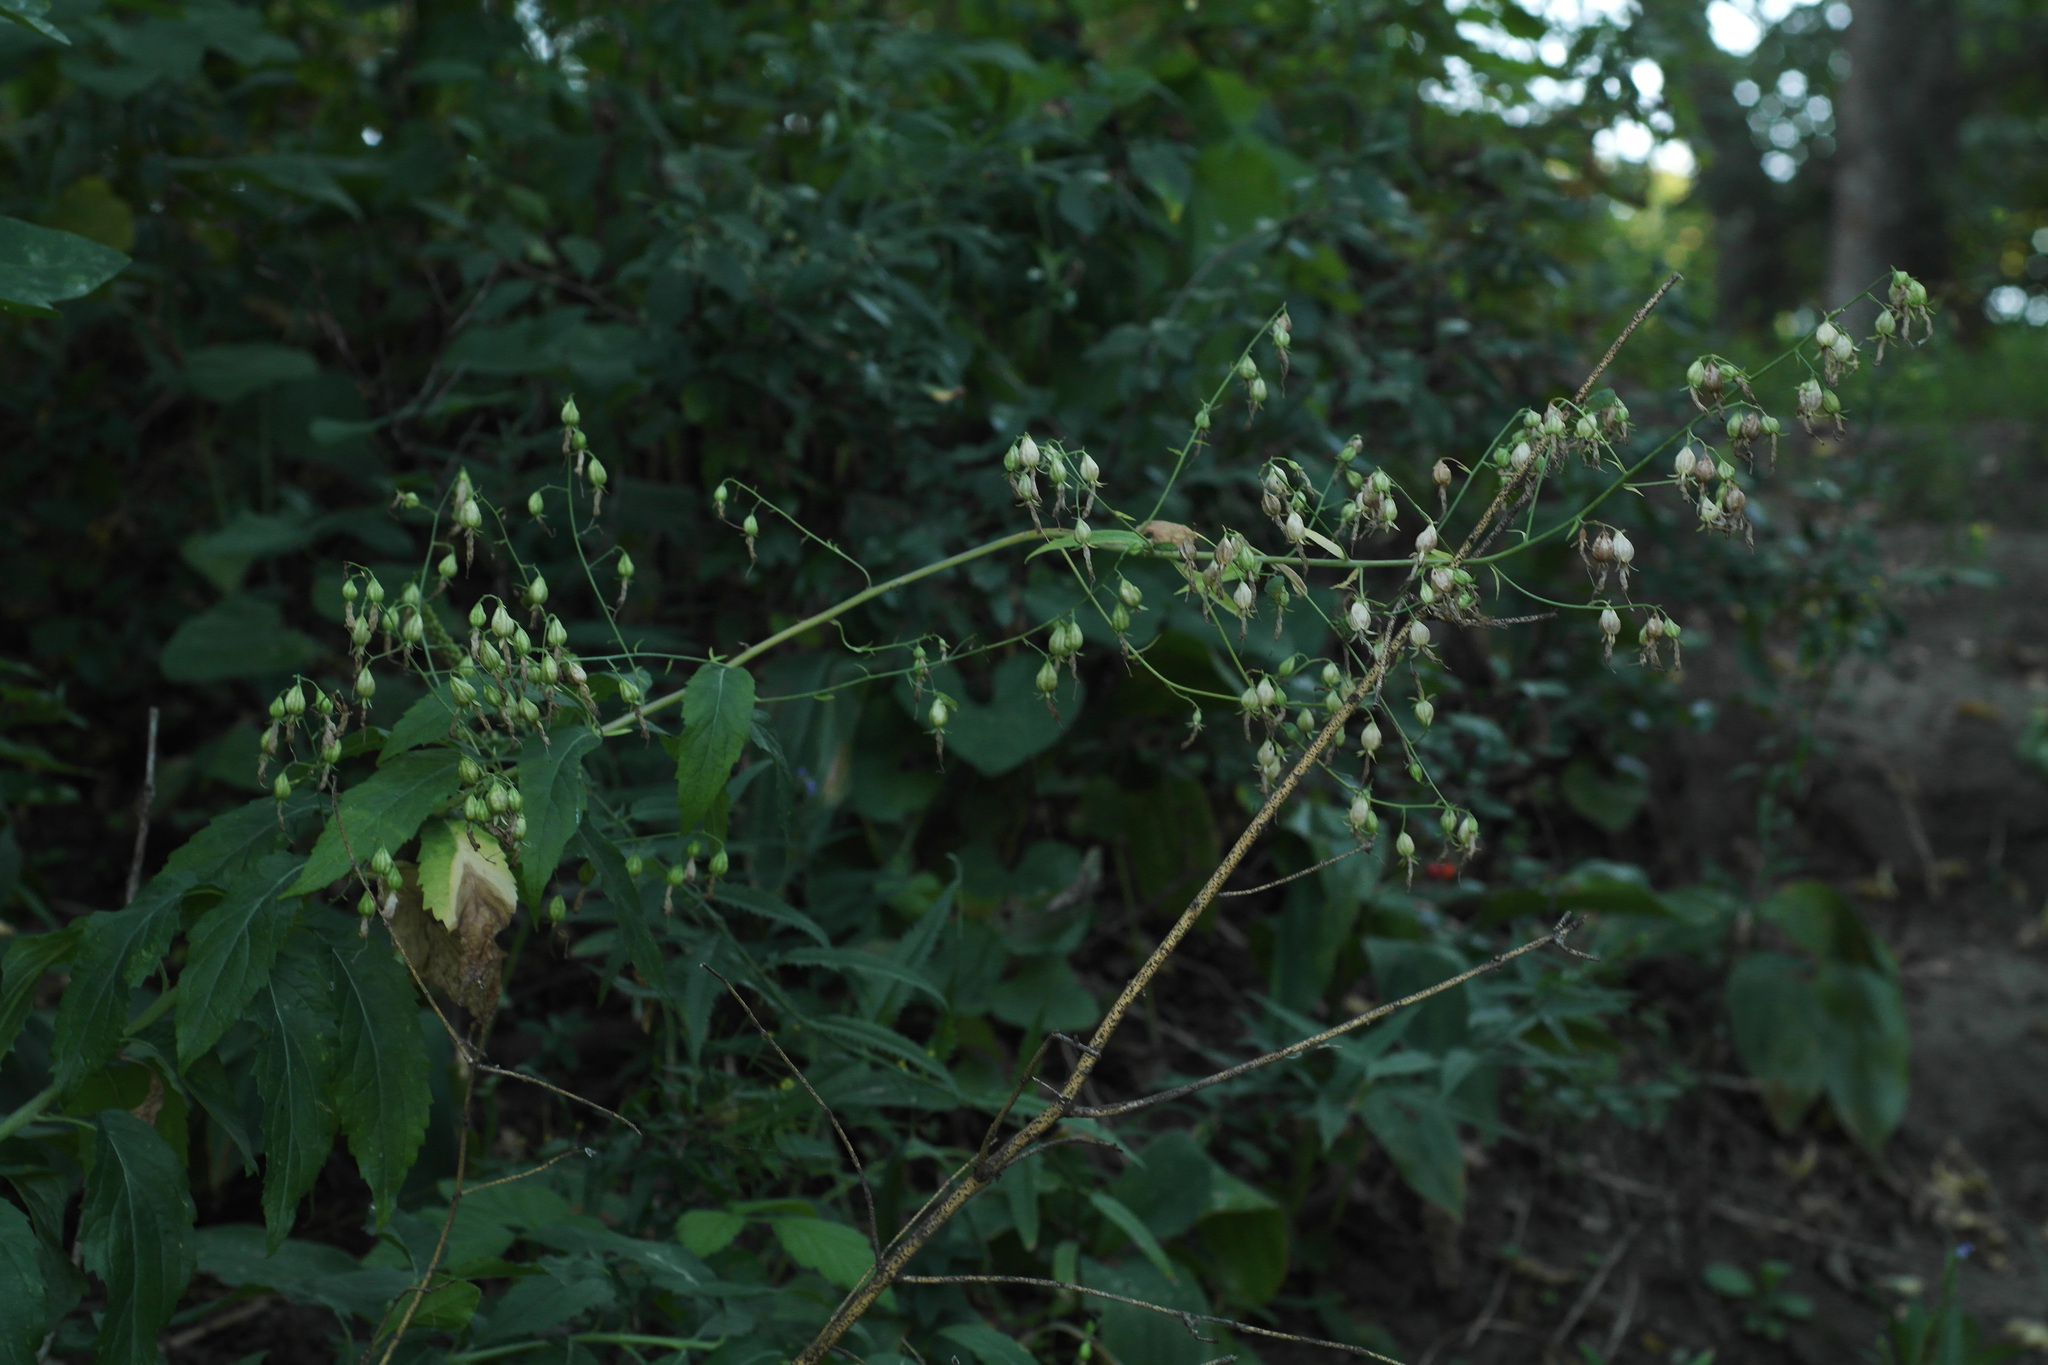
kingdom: Plantae
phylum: Tracheophyta
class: Magnoliopsida
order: Asterales
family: Campanulaceae
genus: Adenophora
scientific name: Adenophora liliifolia
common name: Lilyleaf ladybells
